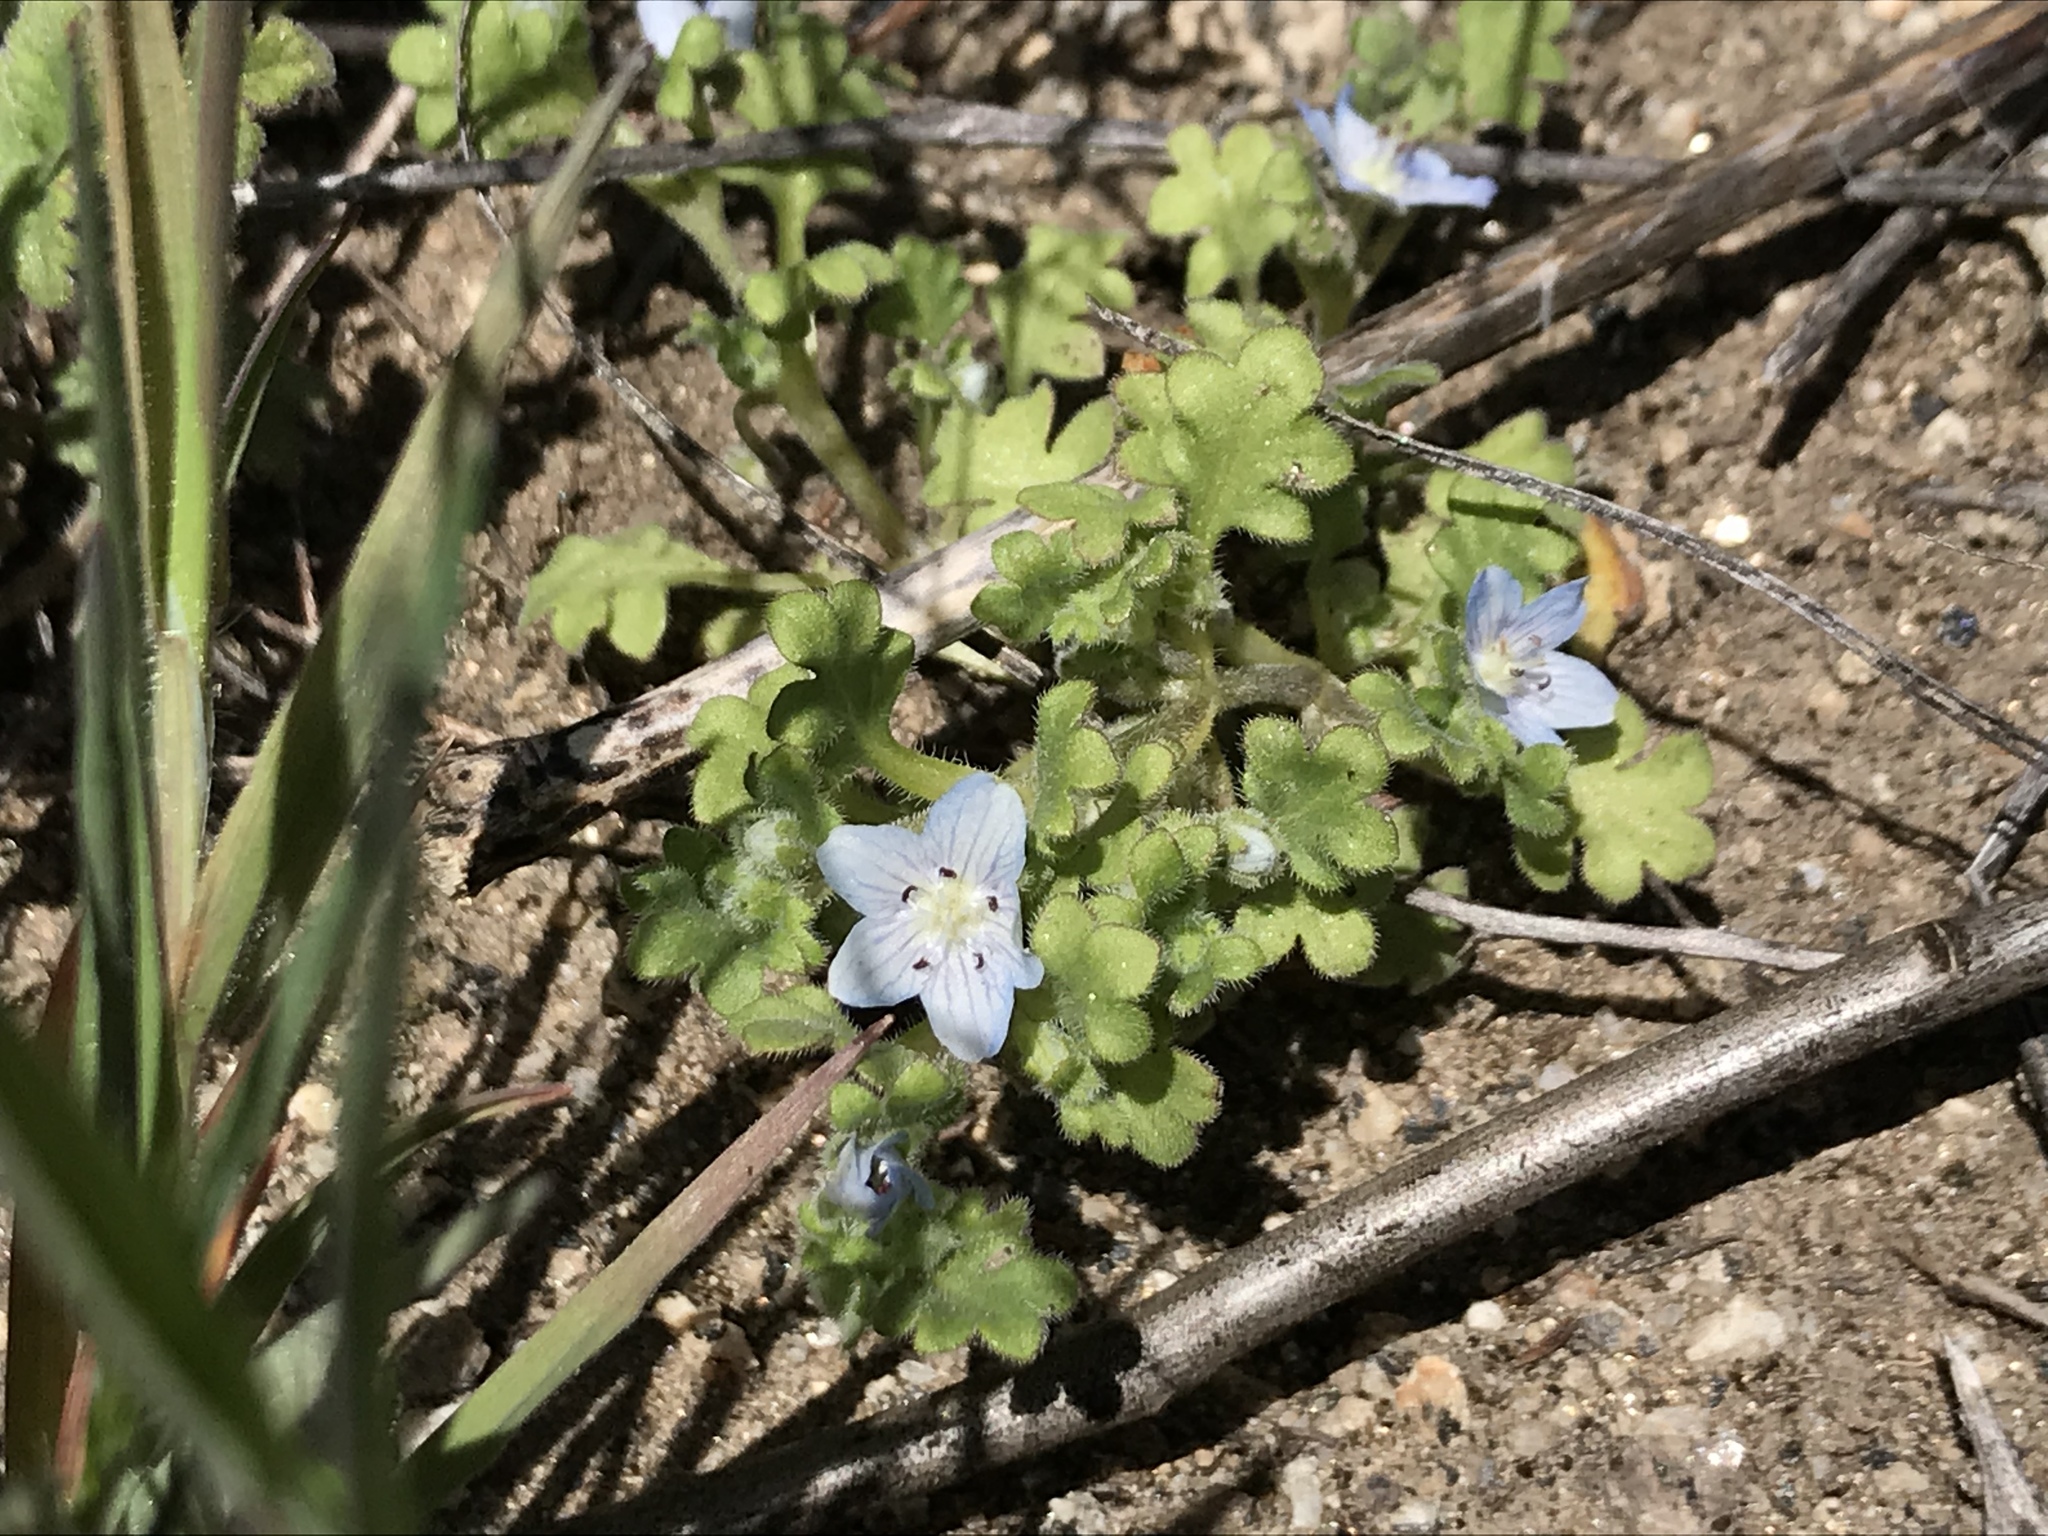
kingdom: Plantae
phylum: Tracheophyta
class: Magnoliopsida
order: Boraginales
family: Hydrophyllaceae
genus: Nemophila
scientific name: Nemophila menziesii
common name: Baby's-blue-eyes
